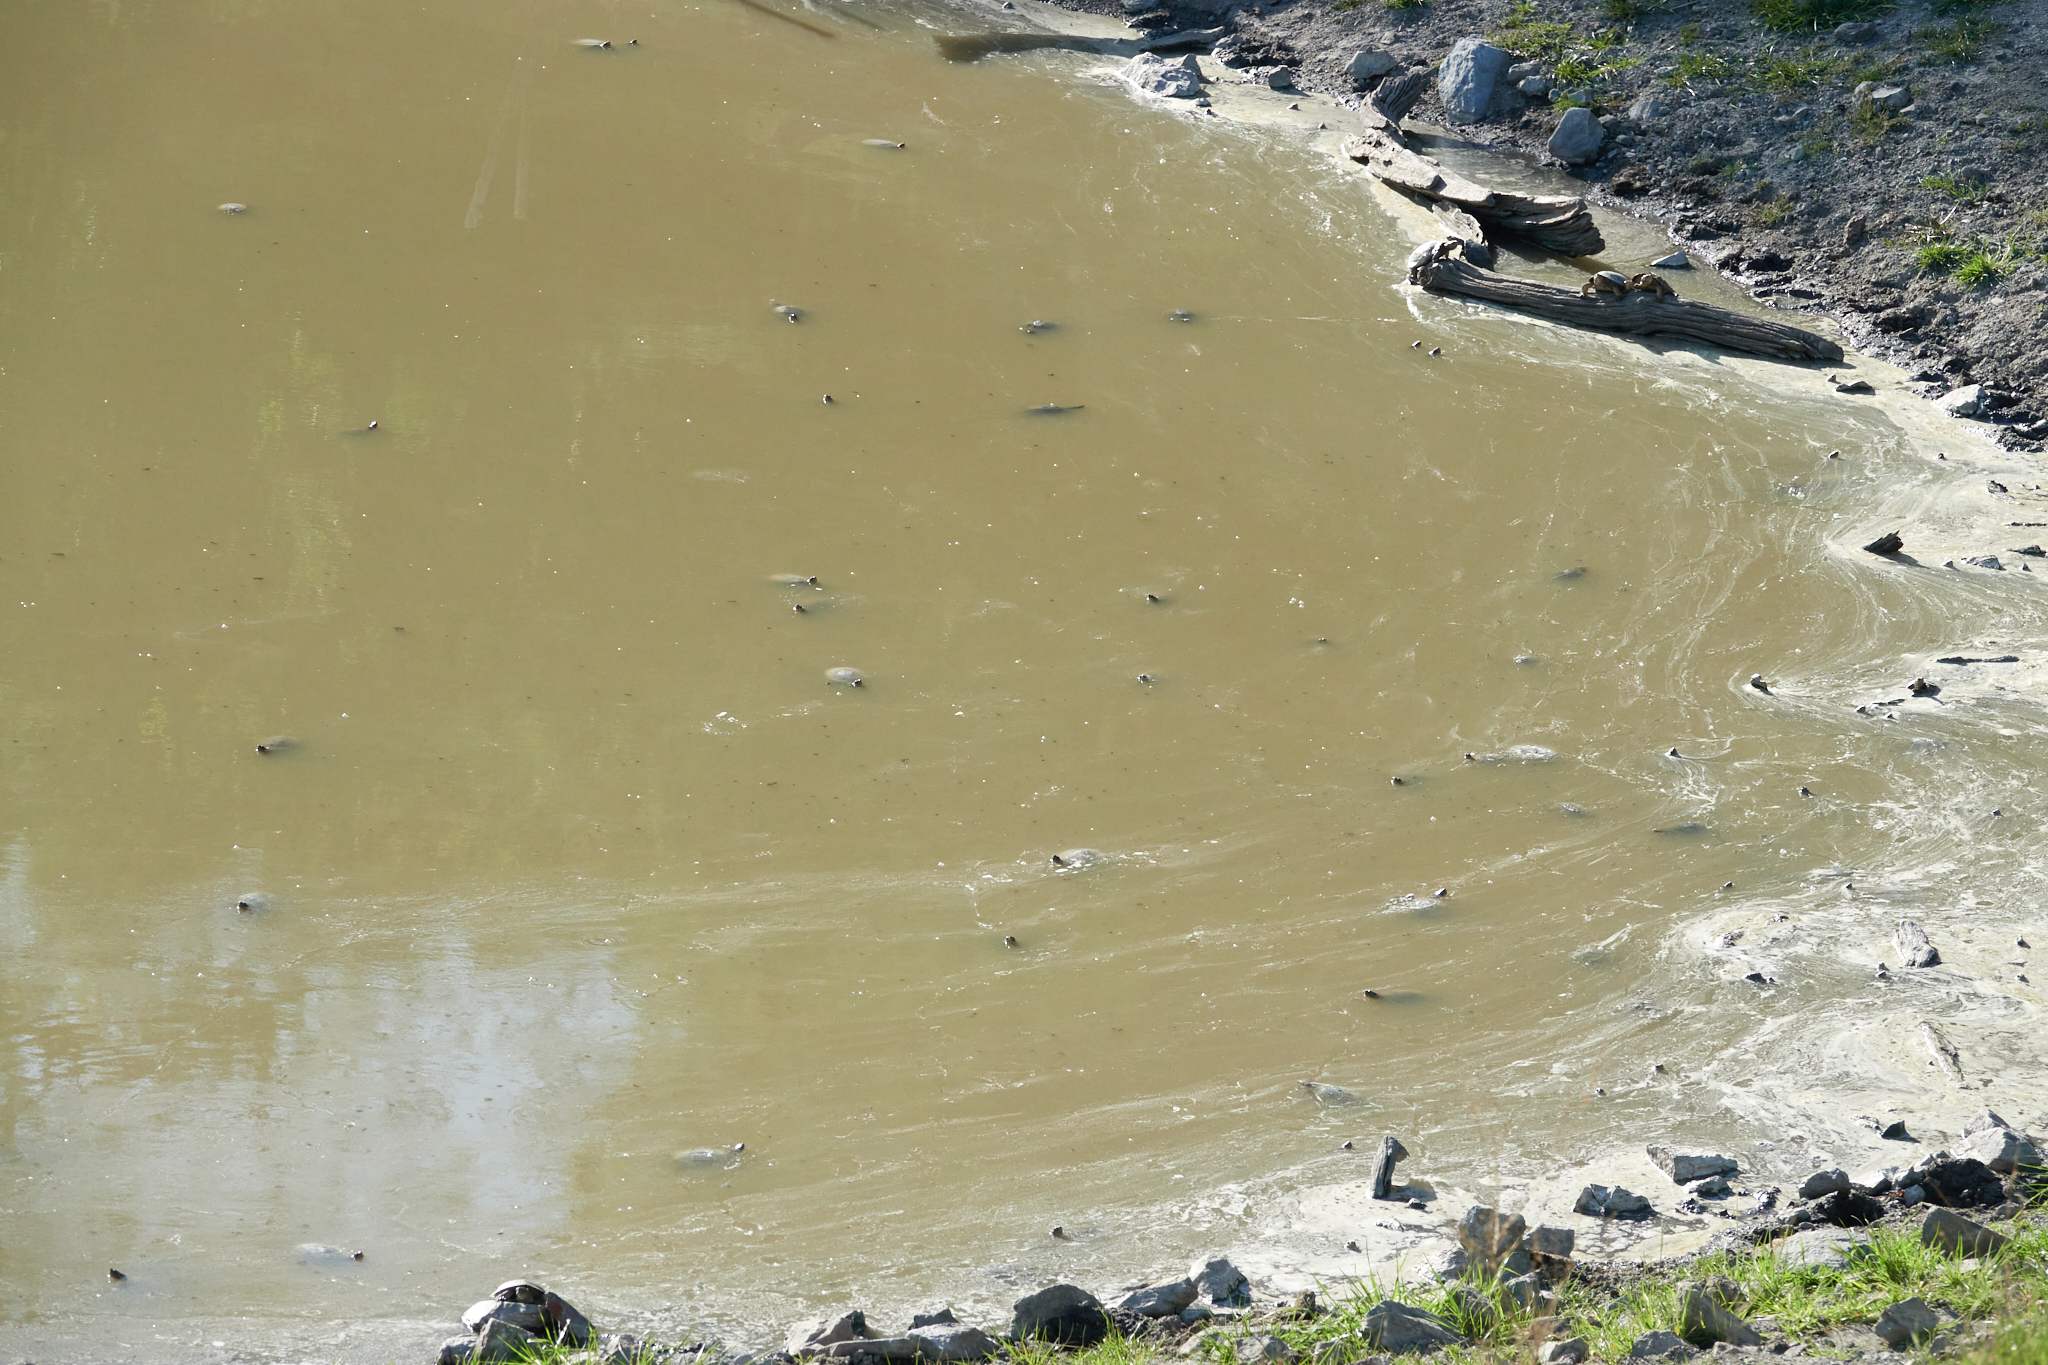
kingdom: Animalia
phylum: Chordata
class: Testudines
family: Emydidae
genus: Actinemys
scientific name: Actinemys marmorata
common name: Western pond turtle
